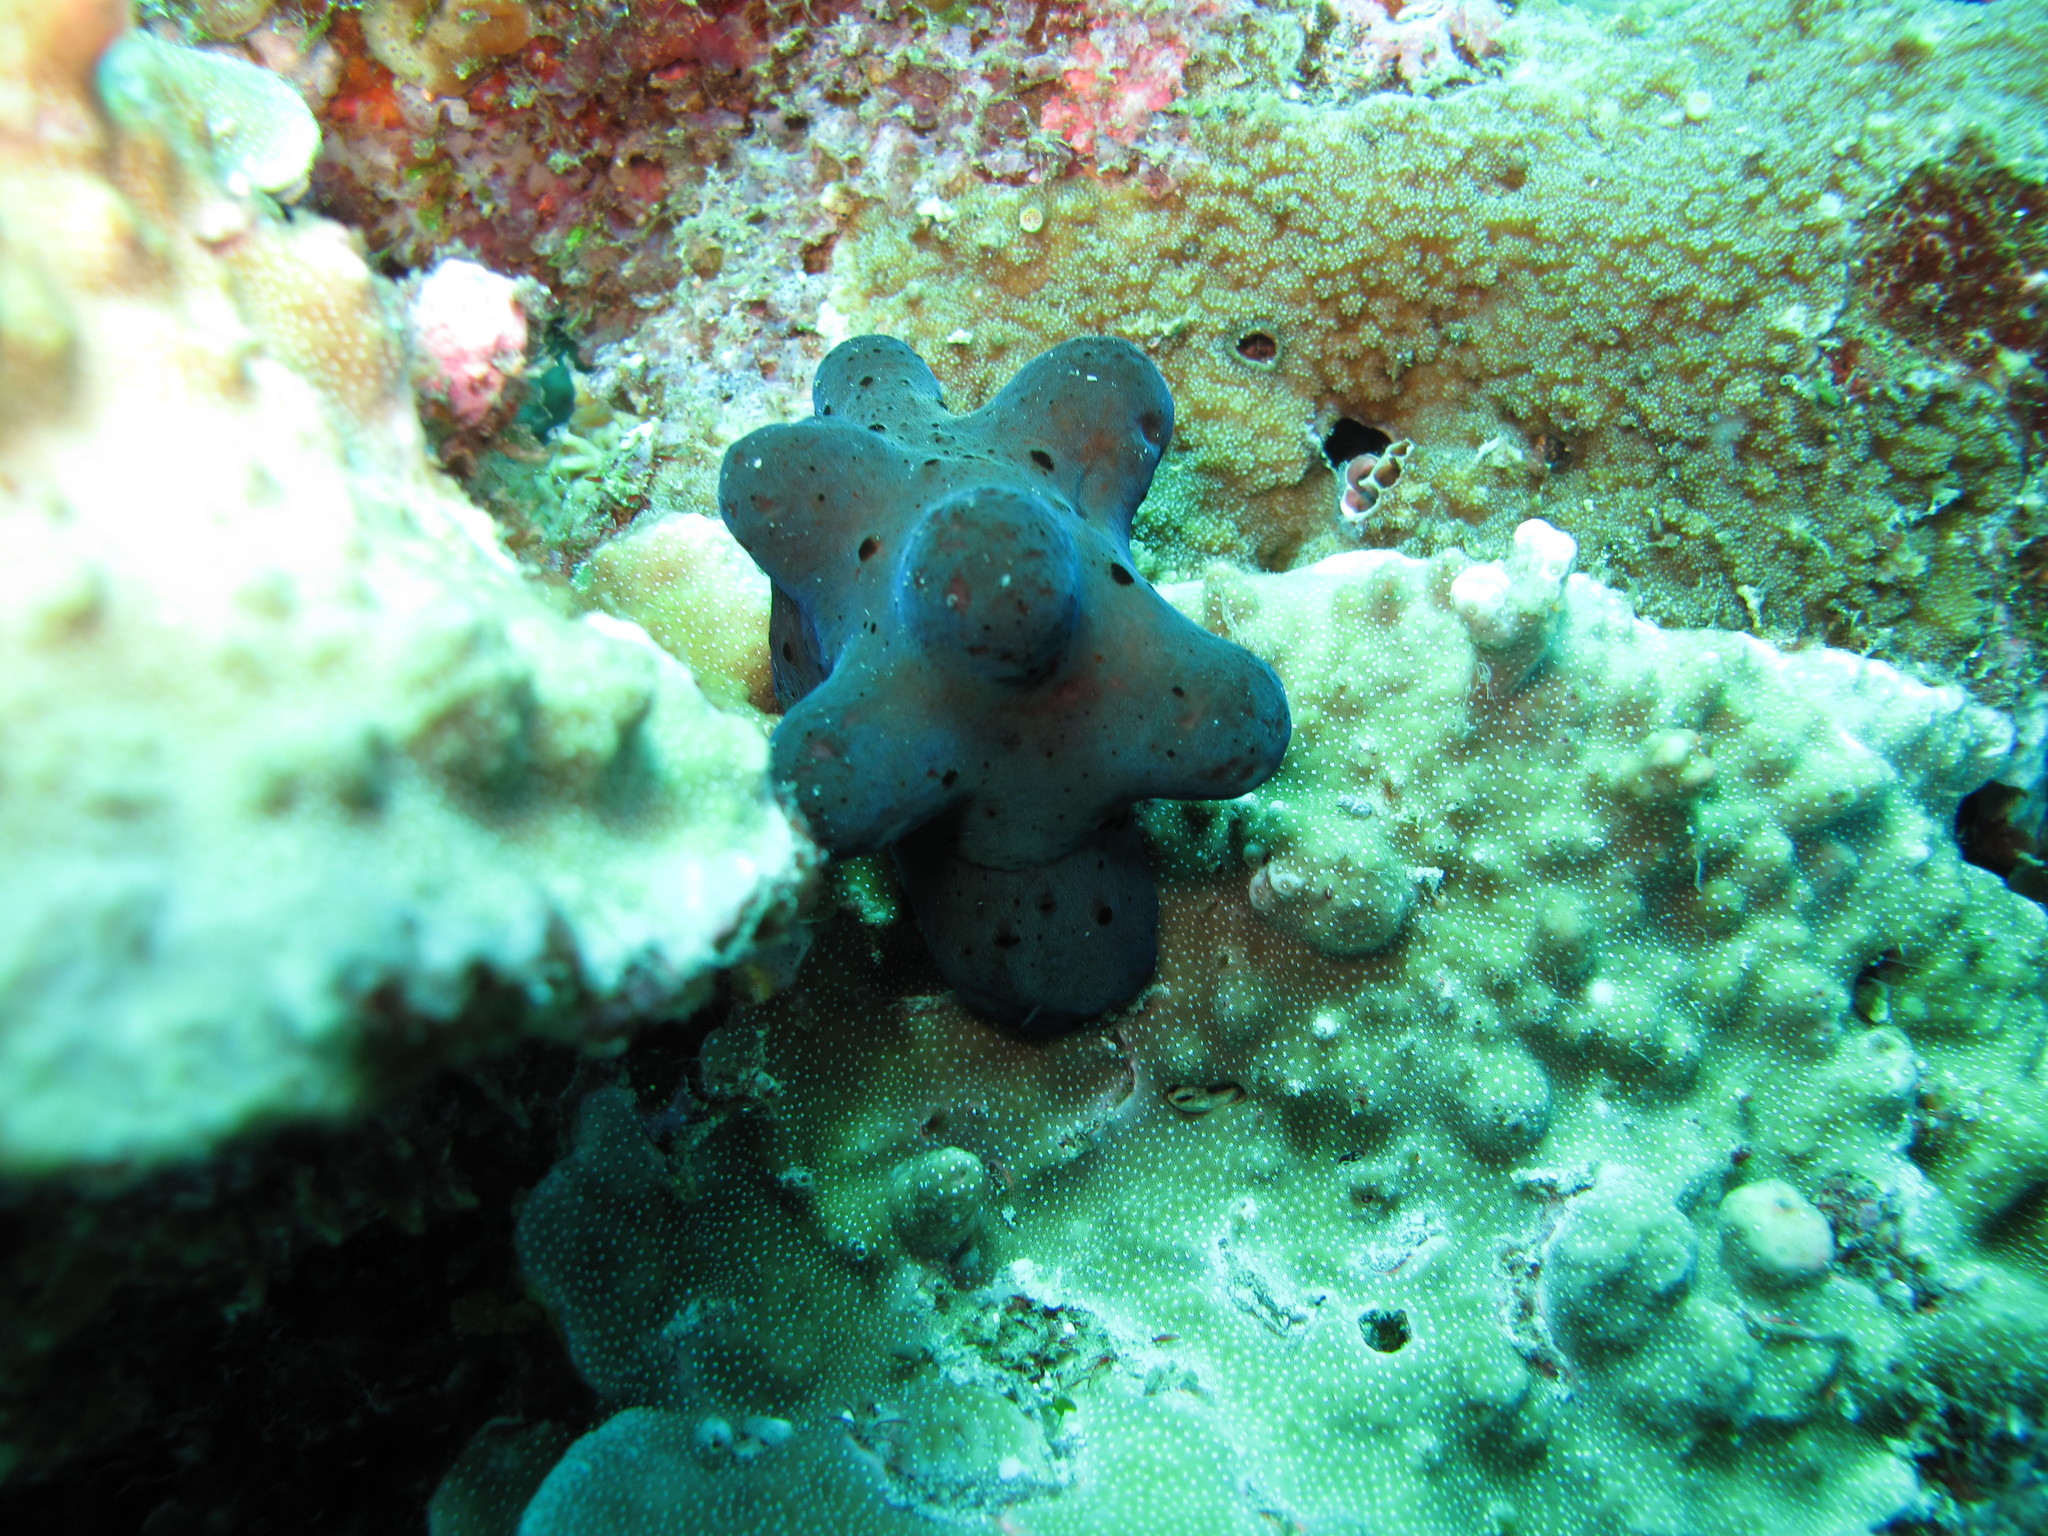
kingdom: Animalia
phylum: Mollusca
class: Gastropoda
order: Littorinimorpha
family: Velutinidae
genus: Coriocella
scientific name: Coriocella hibyae
